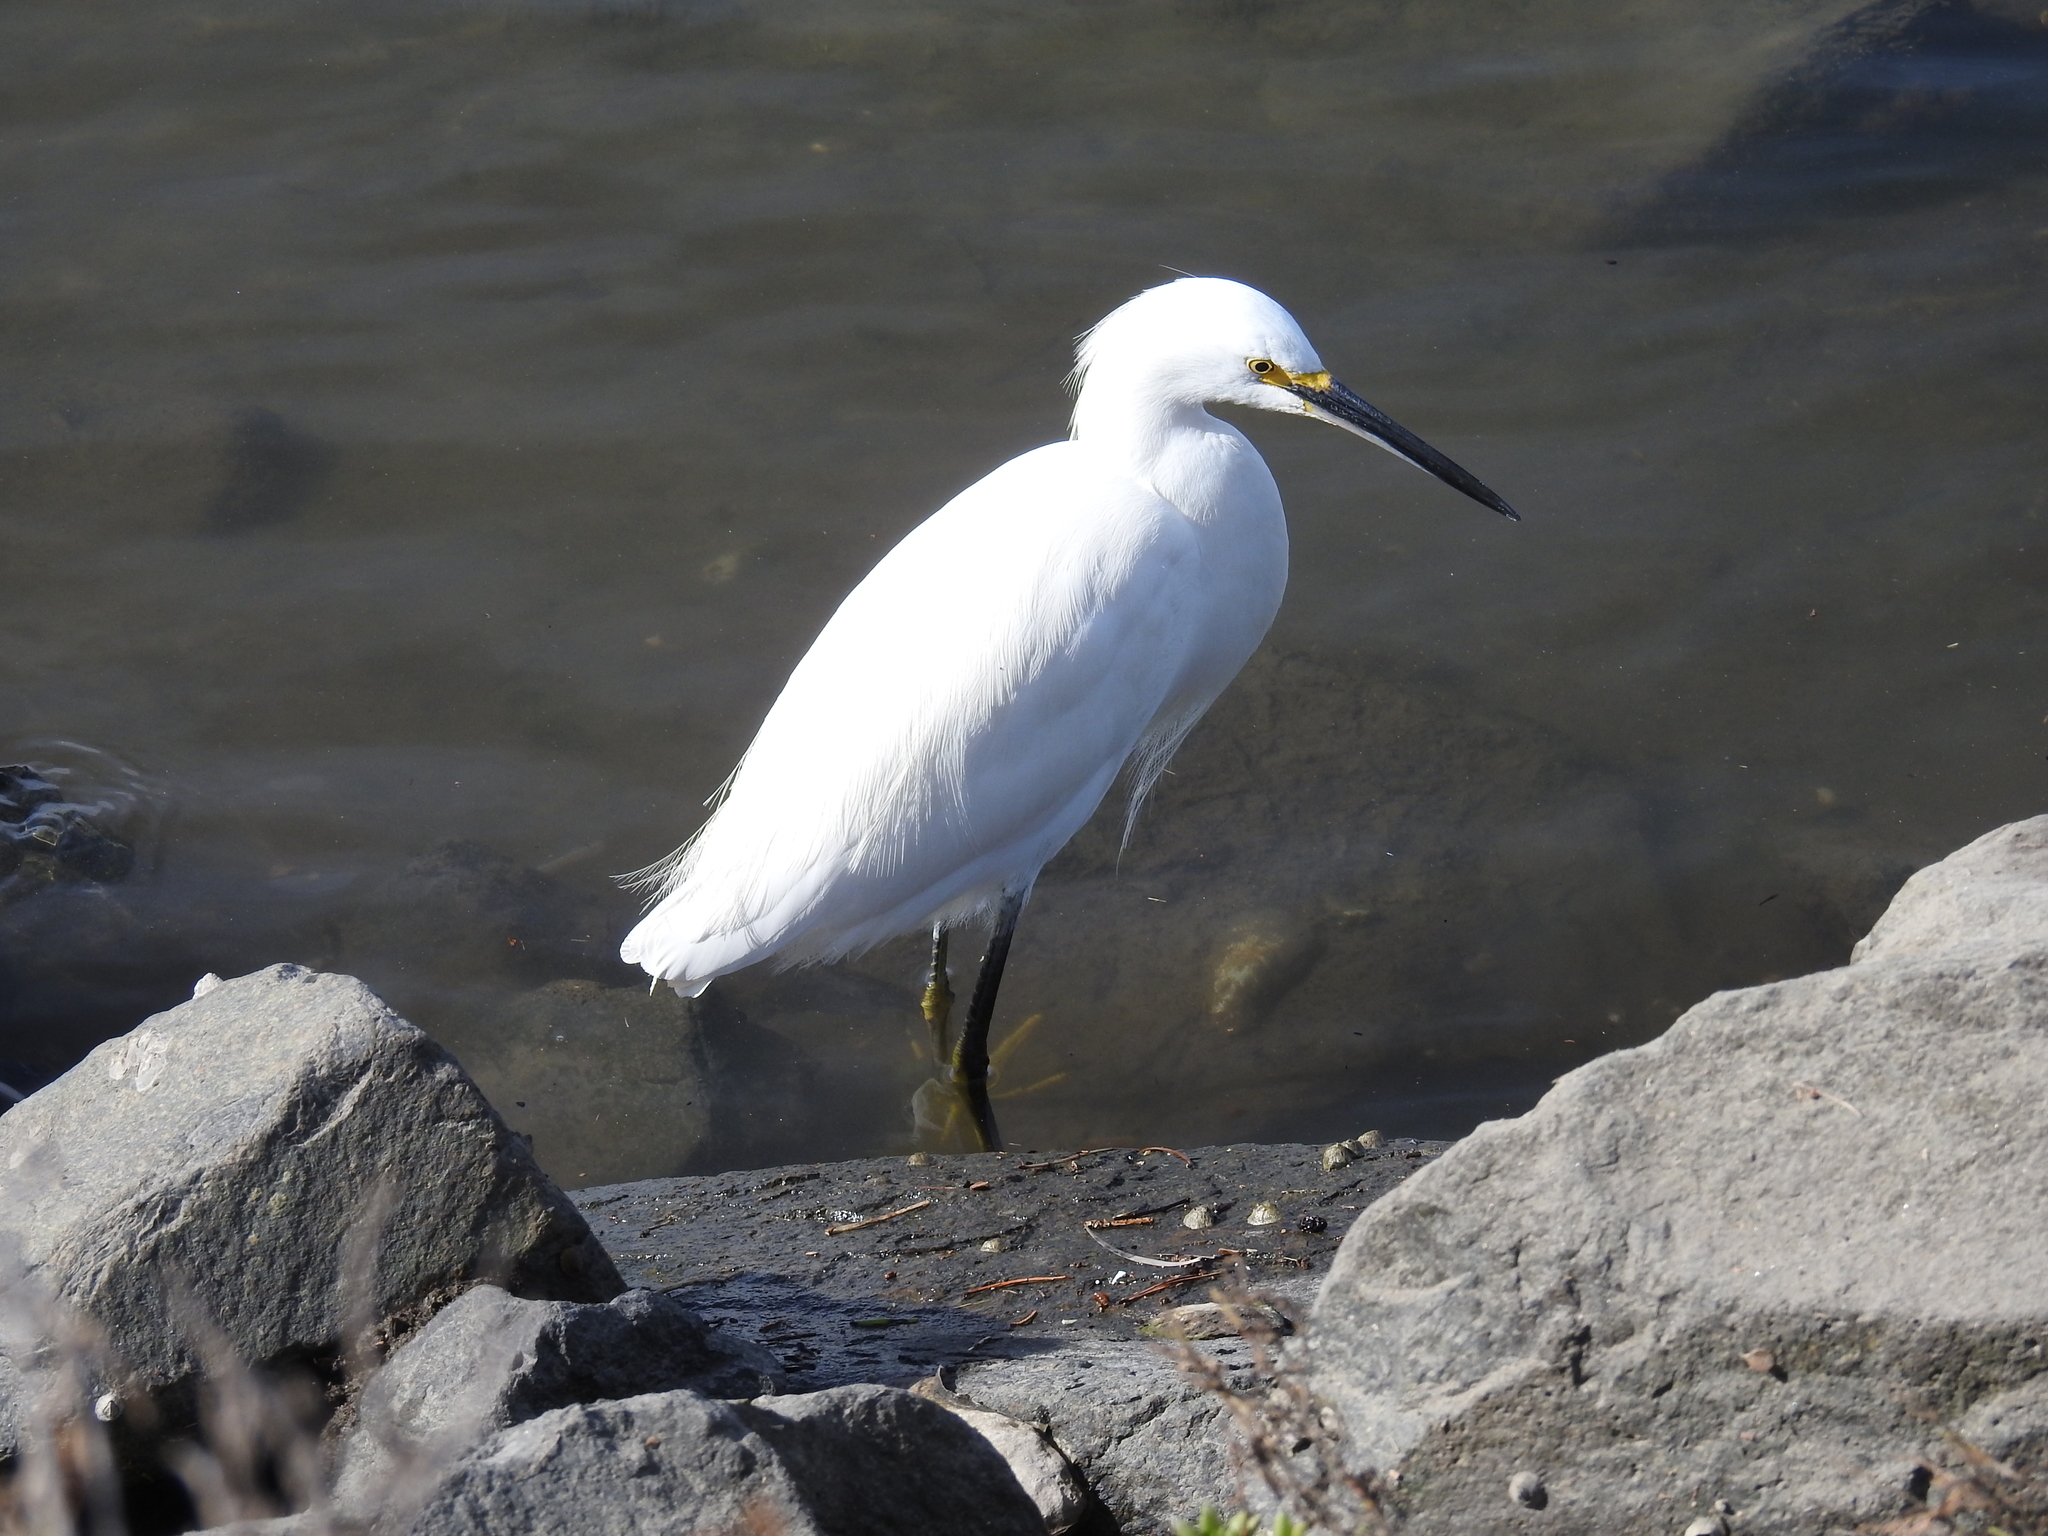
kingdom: Animalia
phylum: Chordata
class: Aves
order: Pelecaniformes
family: Ardeidae
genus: Egretta
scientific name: Egretta thula
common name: Snowy egret
